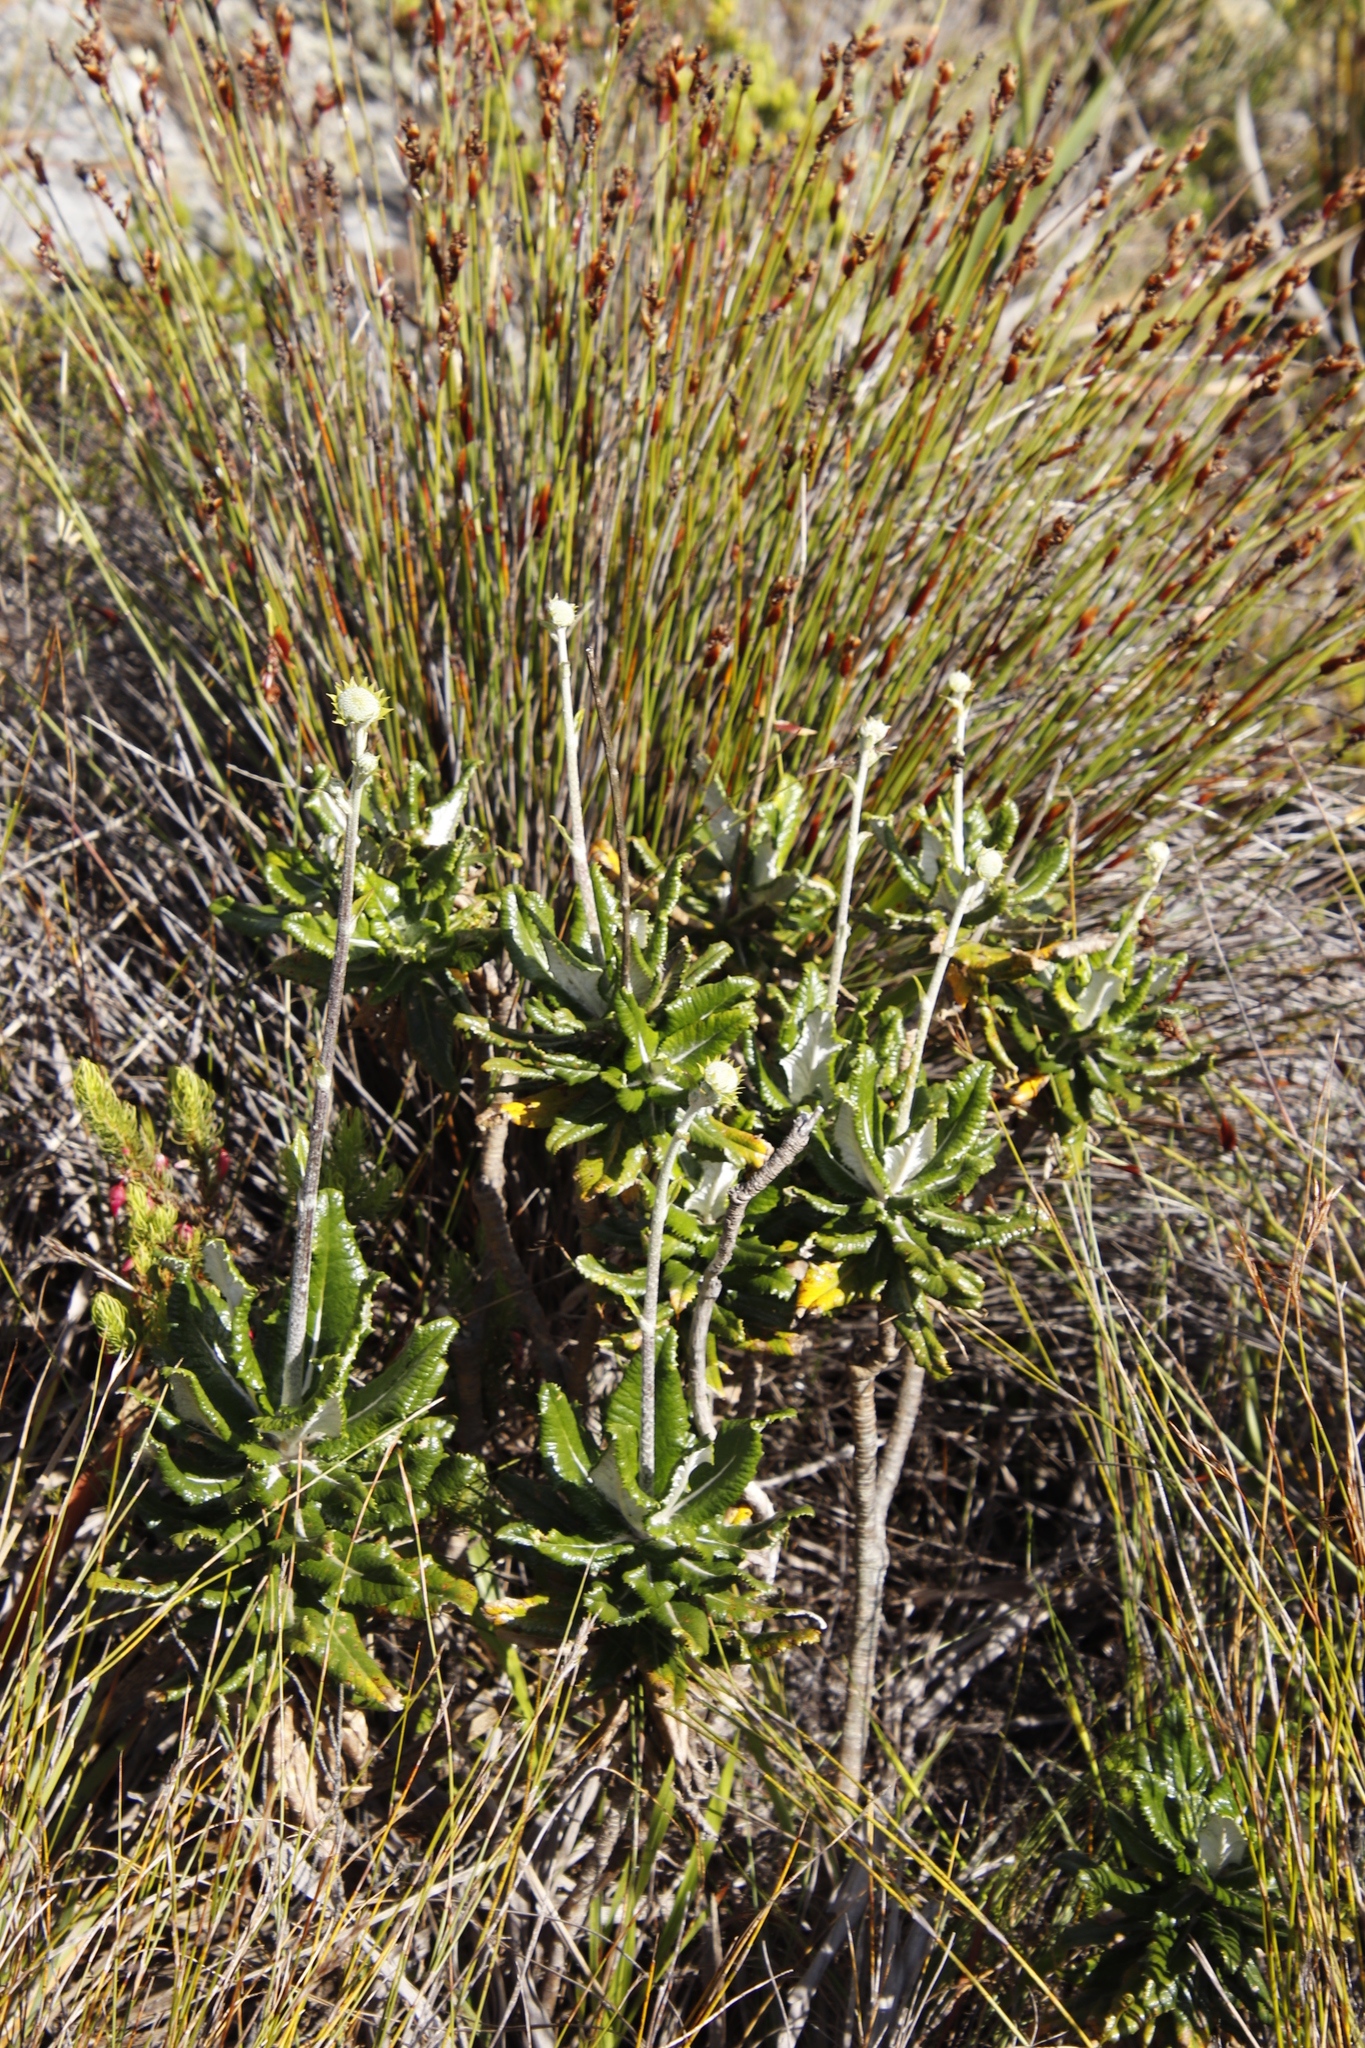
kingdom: Plantae
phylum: Tracheophyta
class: Magnoliopsida
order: Apiales
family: Apiaceae
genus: Hermas
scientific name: Hermas villosa
